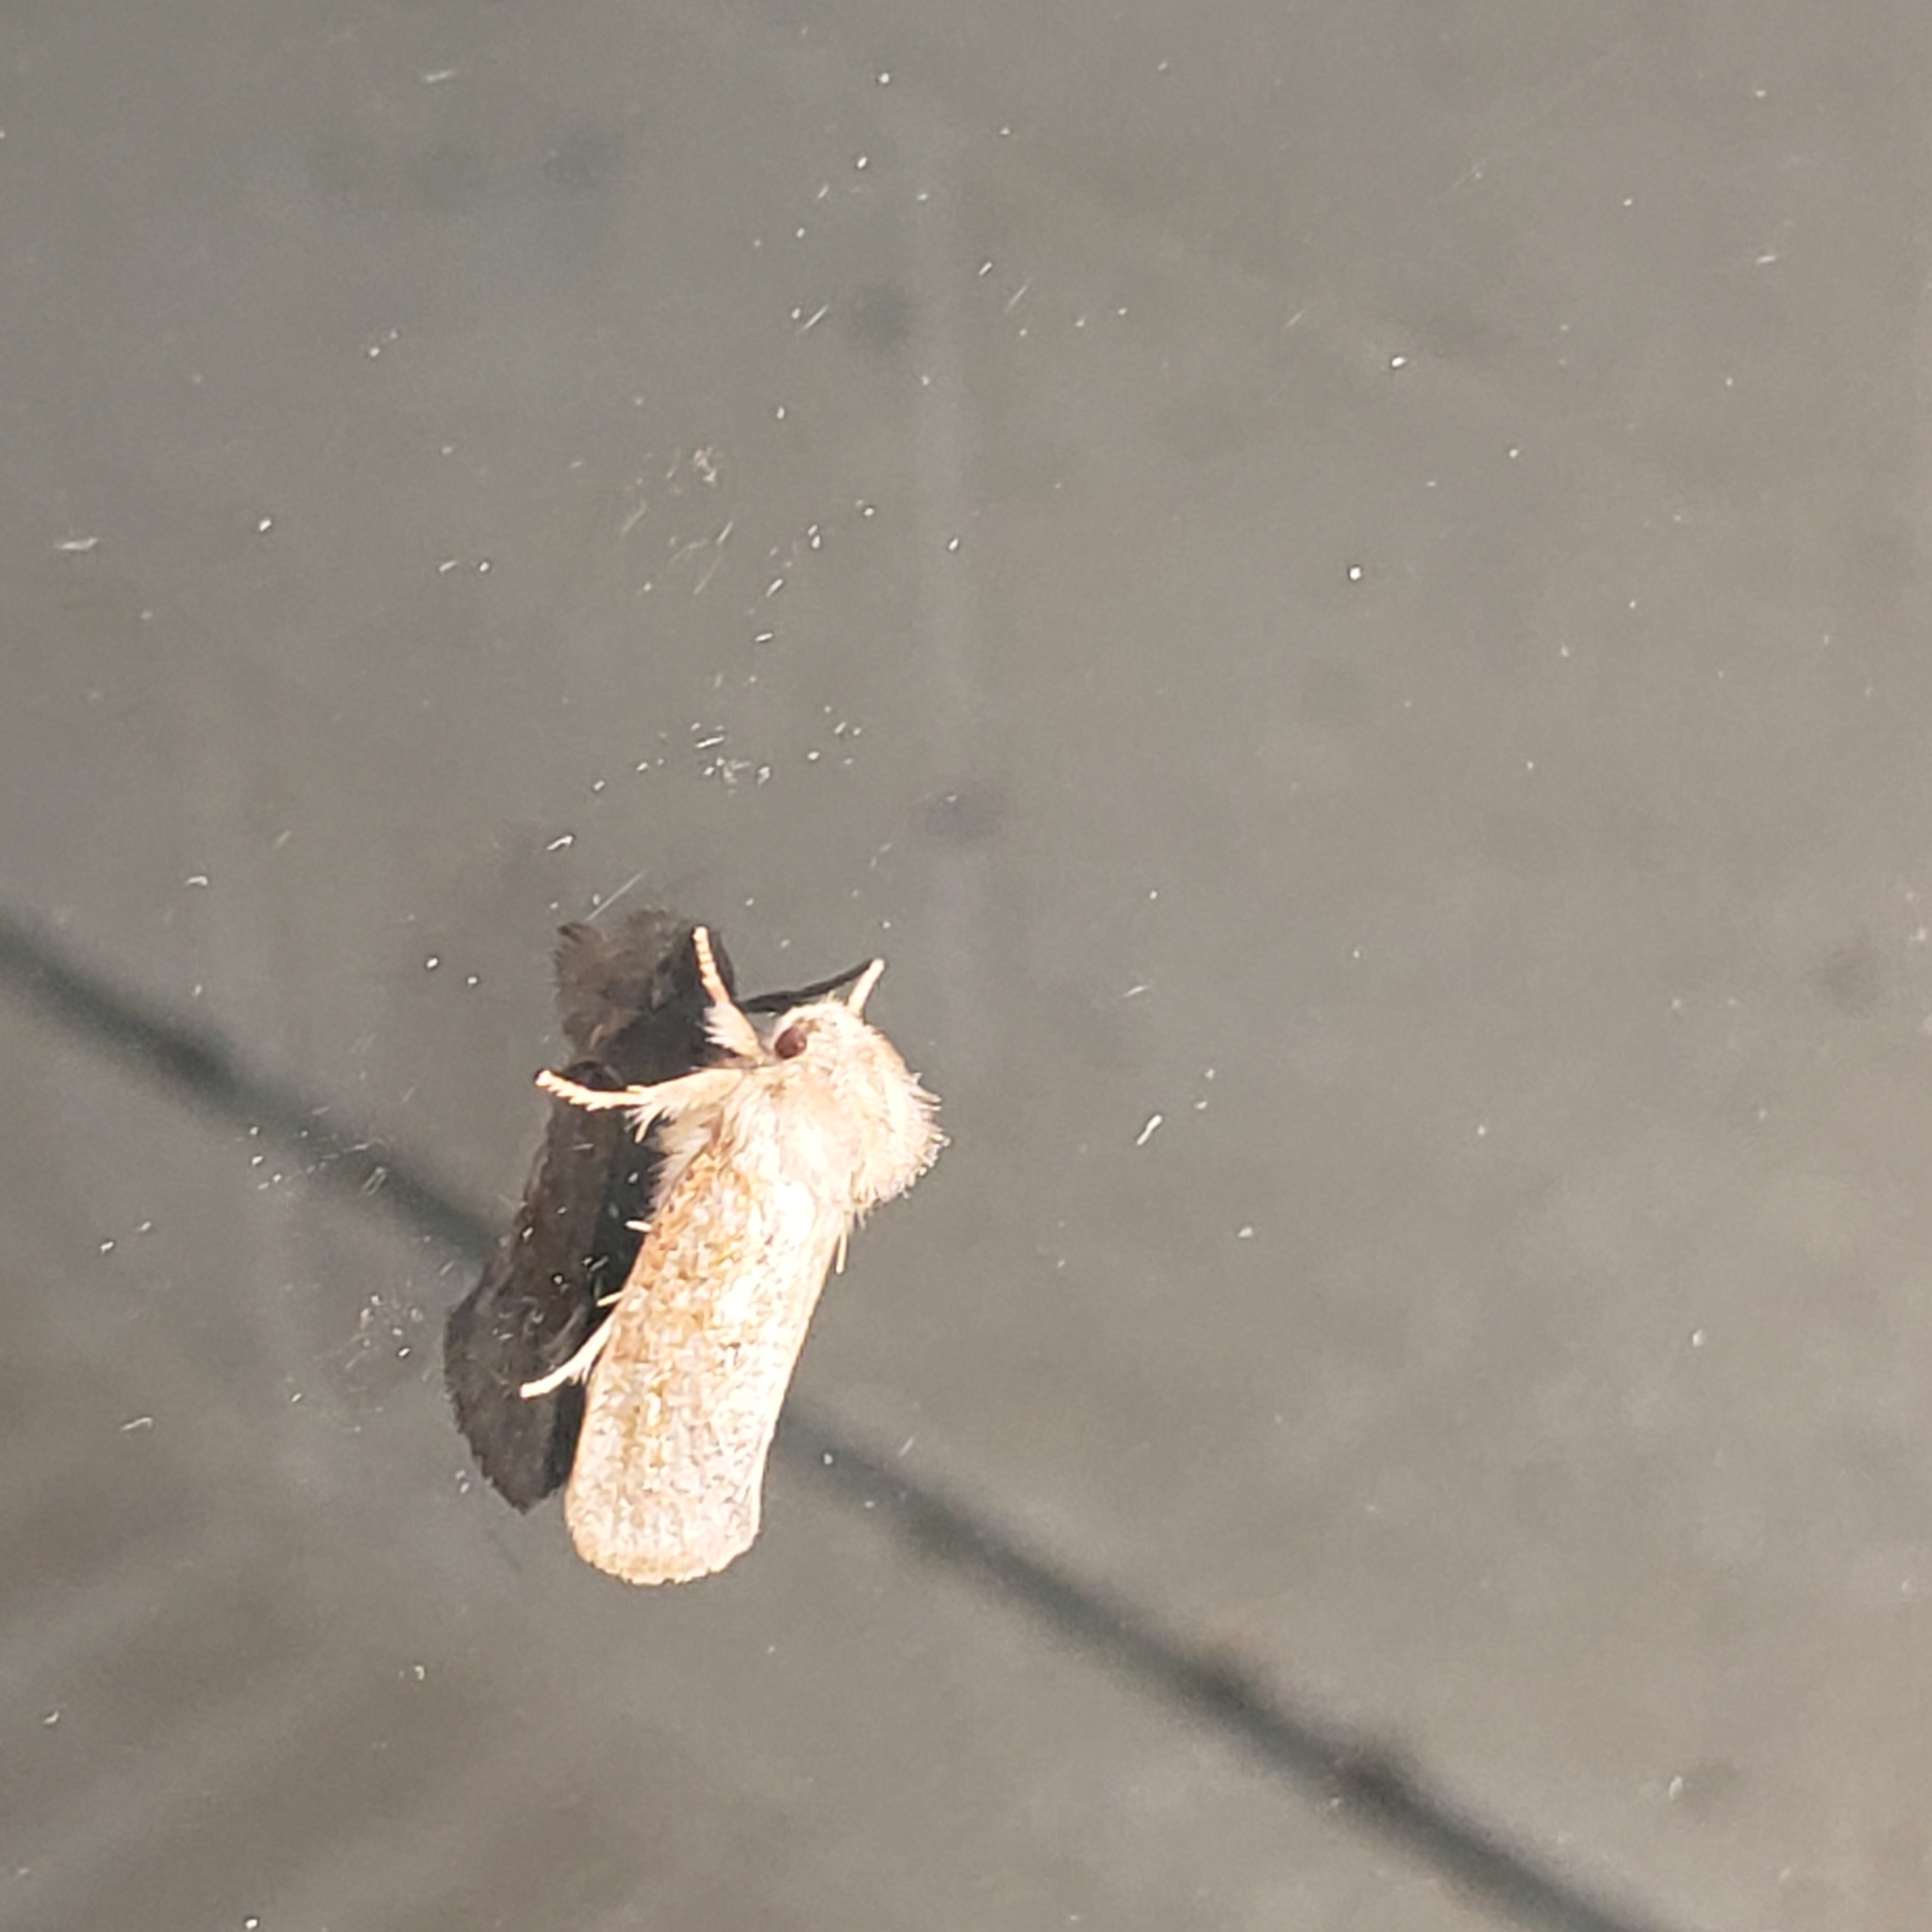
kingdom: Animalia
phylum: Arthropoda
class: Insecta
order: Lepidoptera
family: Tineidae
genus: Acrolophus
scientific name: Acrolophus plumifrontella
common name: Eastern grass tubeworm moth
